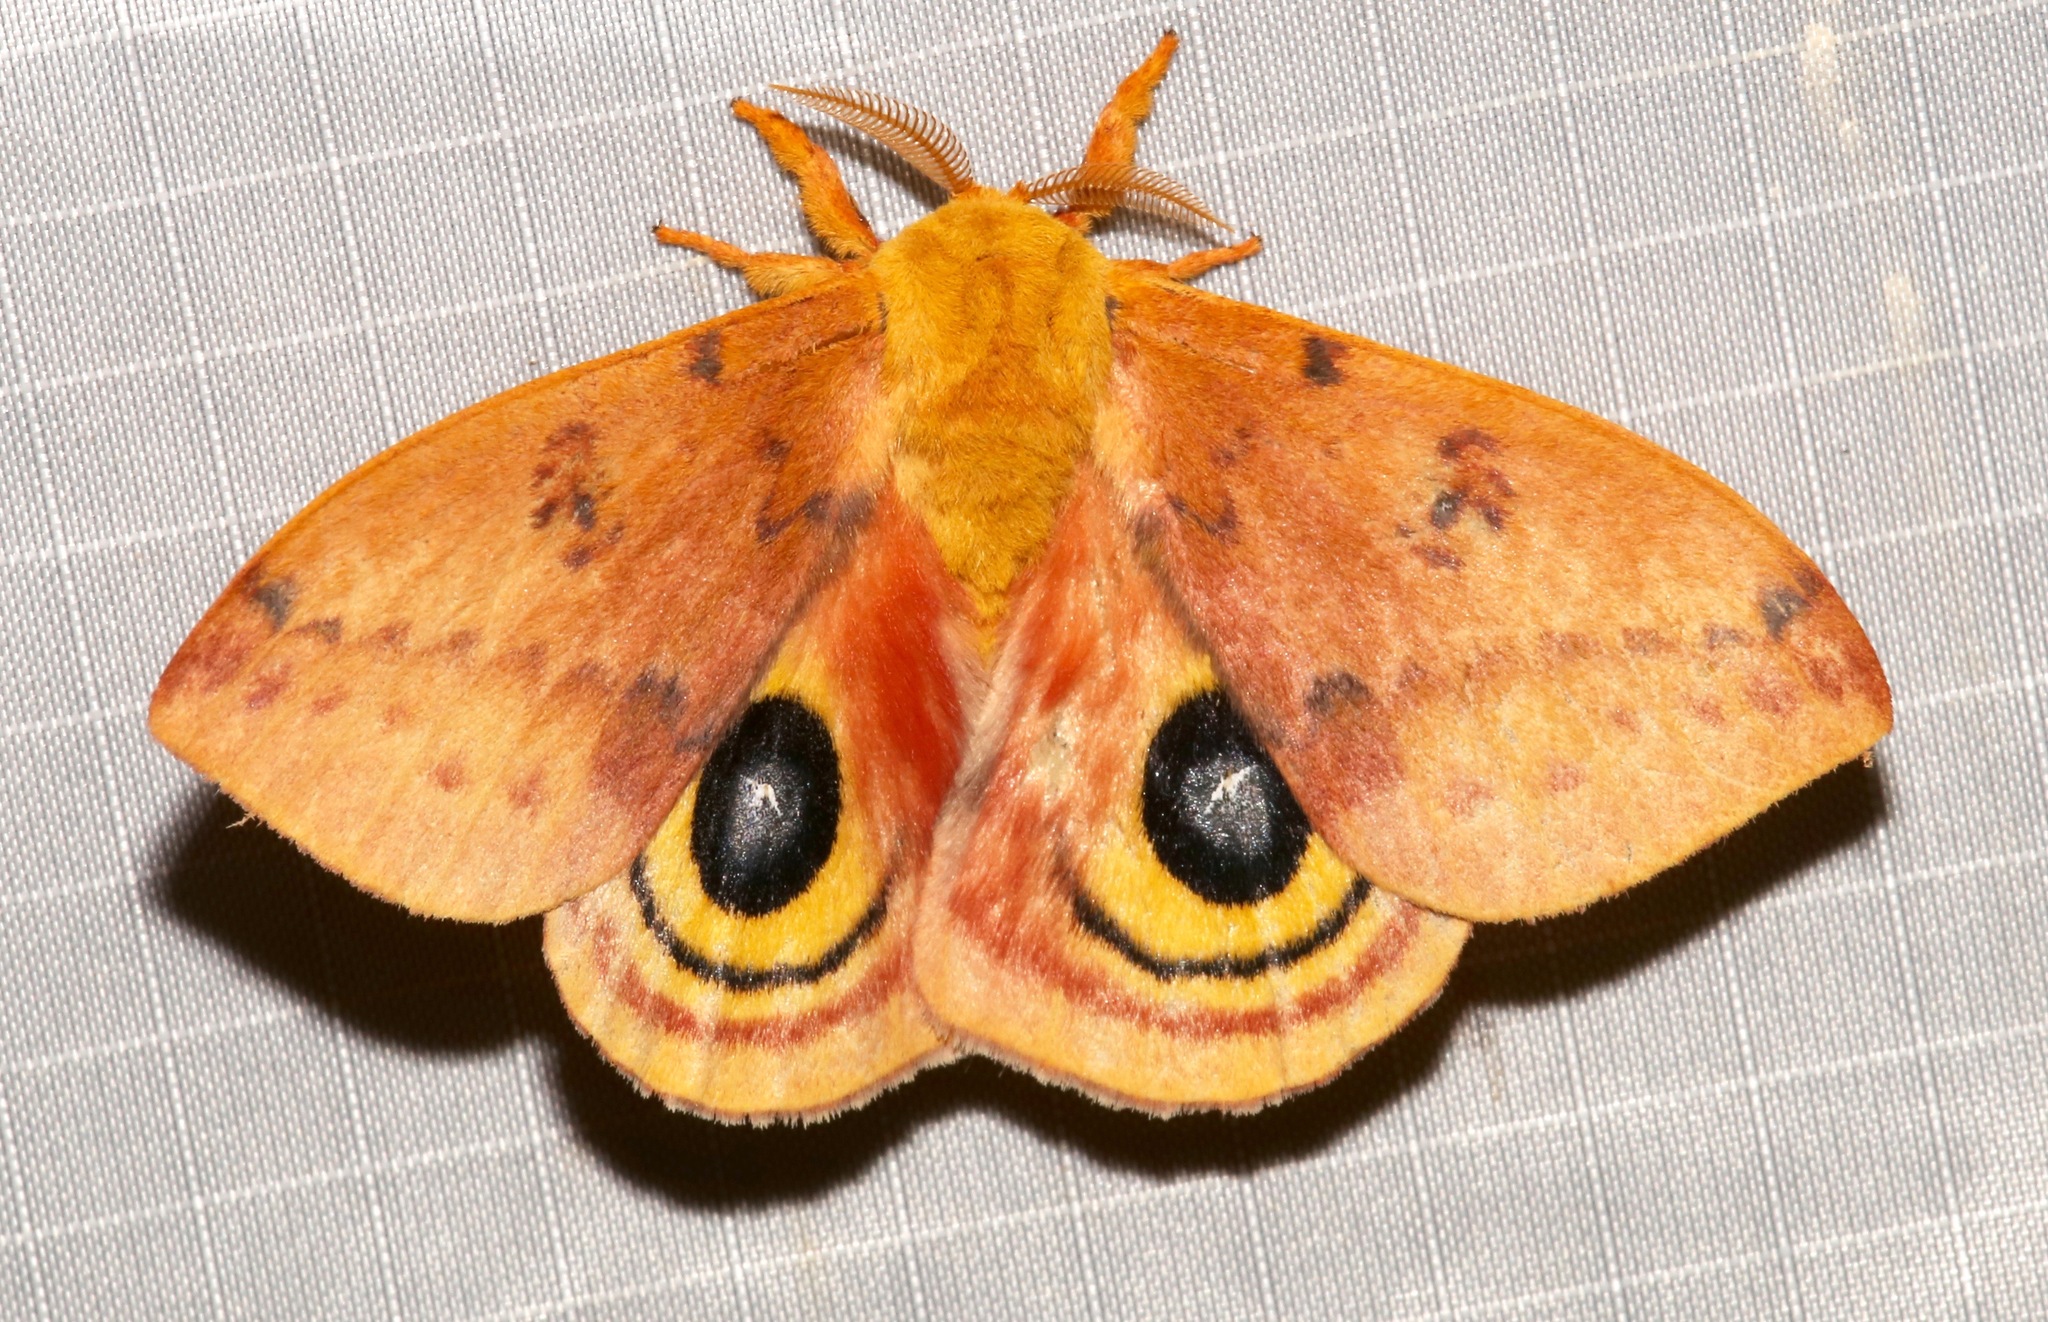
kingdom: Animalia
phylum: Arthropoda
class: Insecta
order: Lepidoptera
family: Saturniidae
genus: Automeris
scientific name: Automeris io
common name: Io moth
